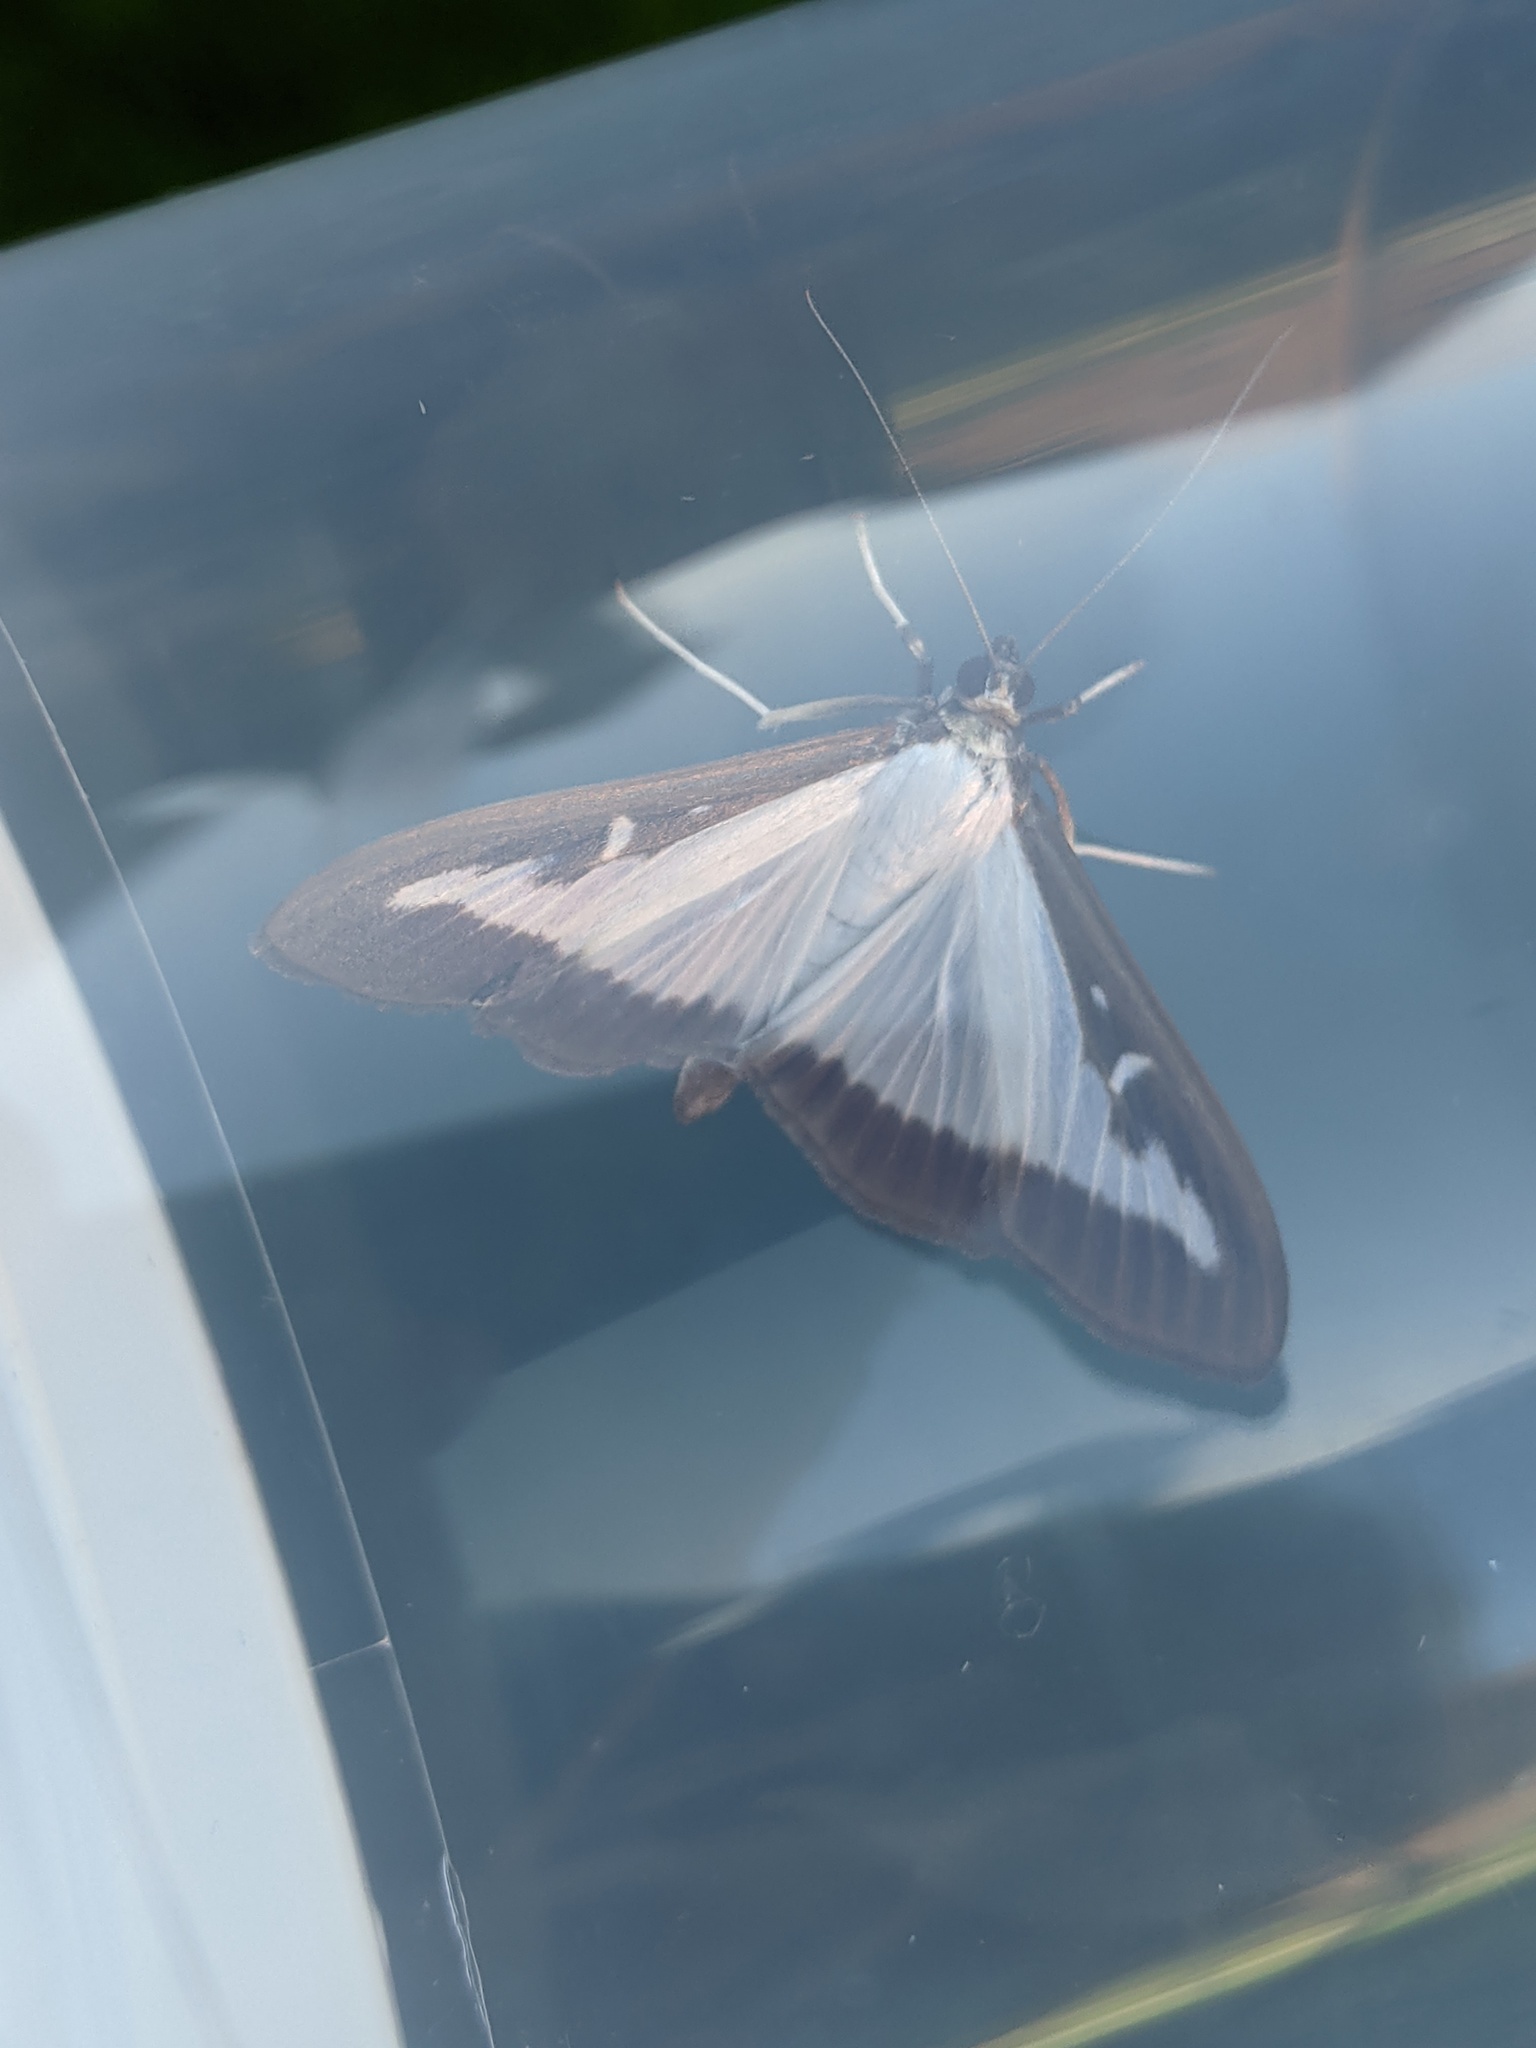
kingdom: Animalia
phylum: Arthropoda
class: Insecta
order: Lepidoptera
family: Crambidae
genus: Cydalima
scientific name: Cydalima perspectalis
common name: Box tree moth
